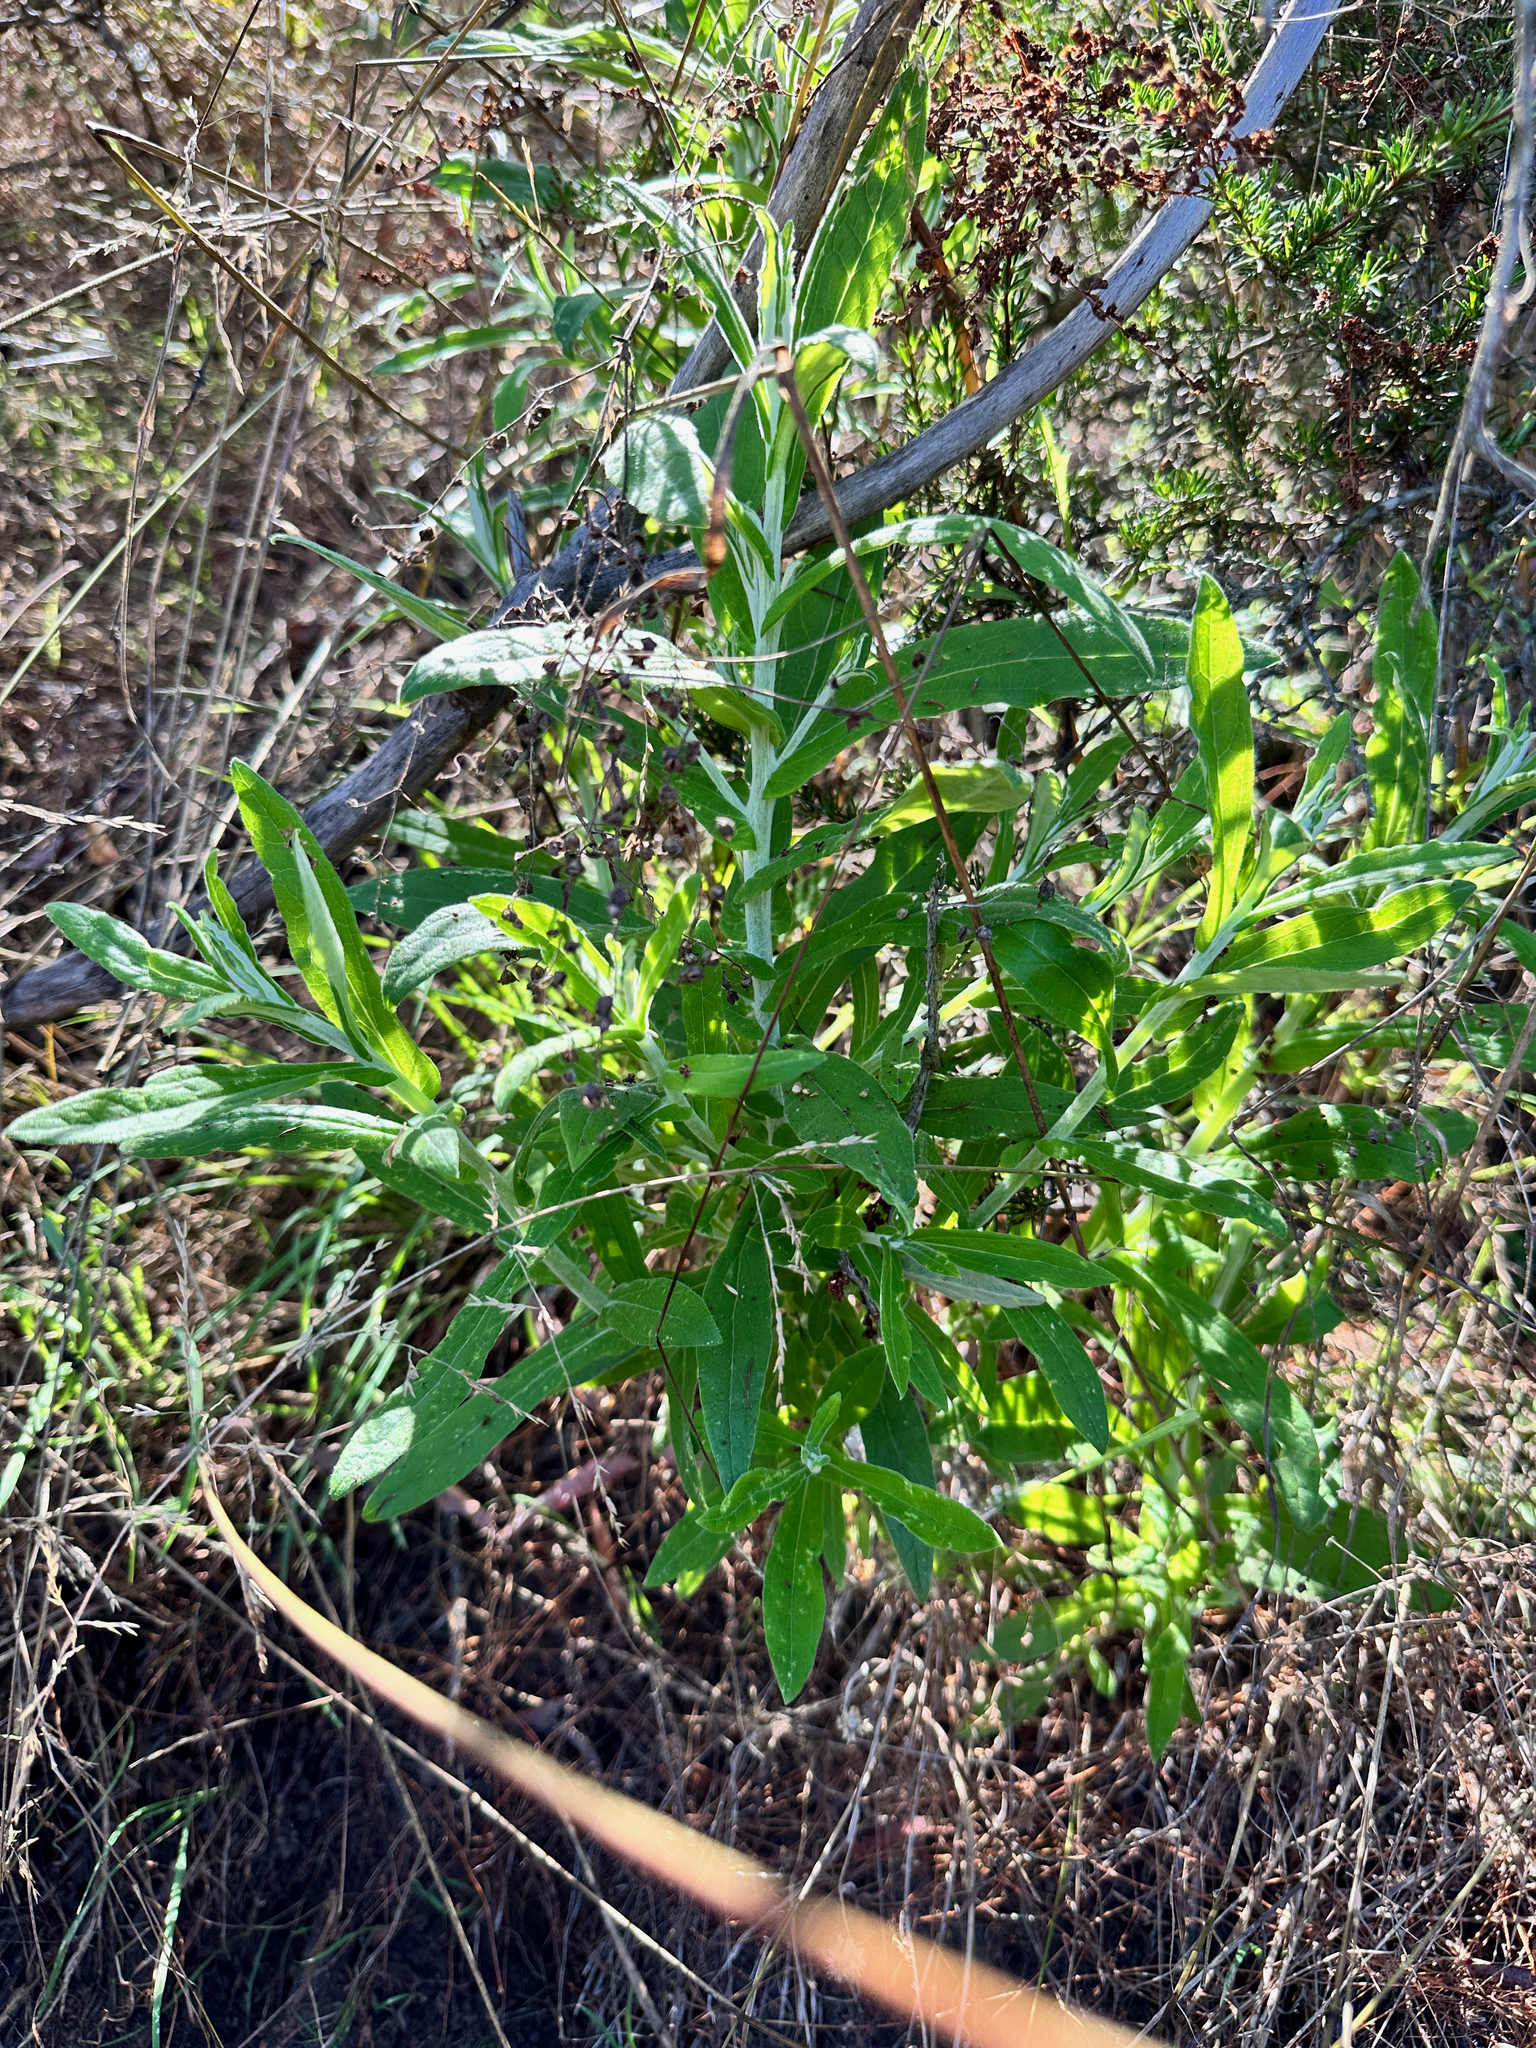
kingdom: Plantae
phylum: Tracheophyta
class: Magnoliopsida
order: Asterales
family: Asteraceae
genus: Pseudognaphalium
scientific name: Pseudognaphalium biolettii
